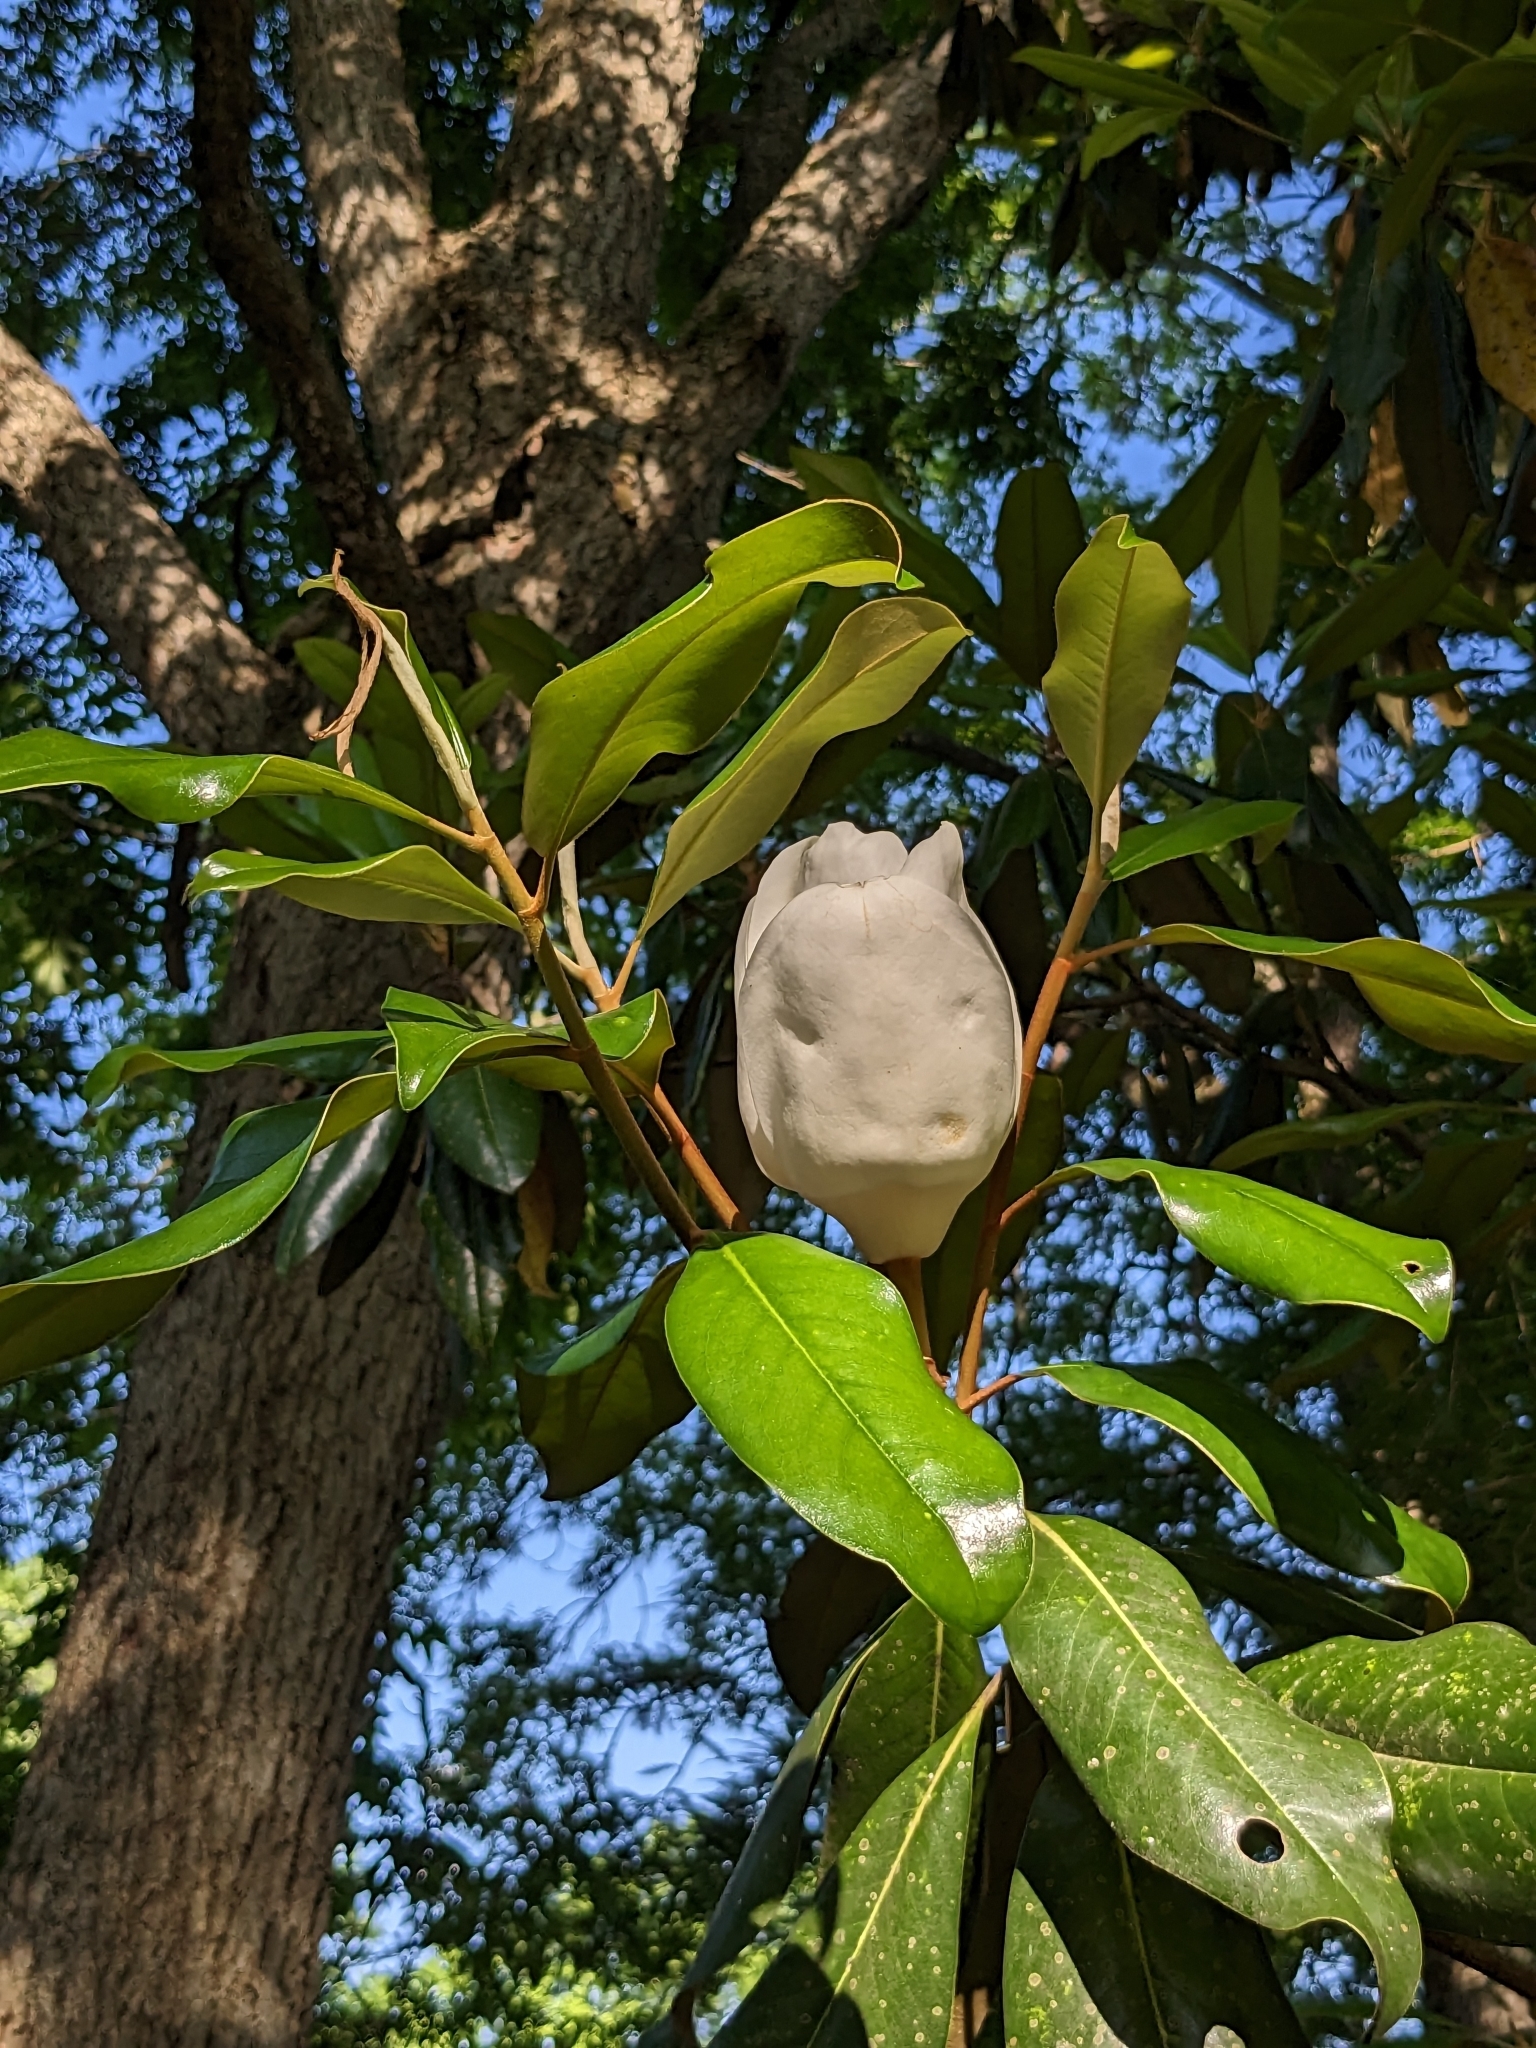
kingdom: Plantae
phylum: Tracheophyta
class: Magnoliopsida
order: Magnoliales
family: Magnoliaceae
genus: Magnolia
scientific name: Magnolia grandiflora
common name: Southern magnolia
